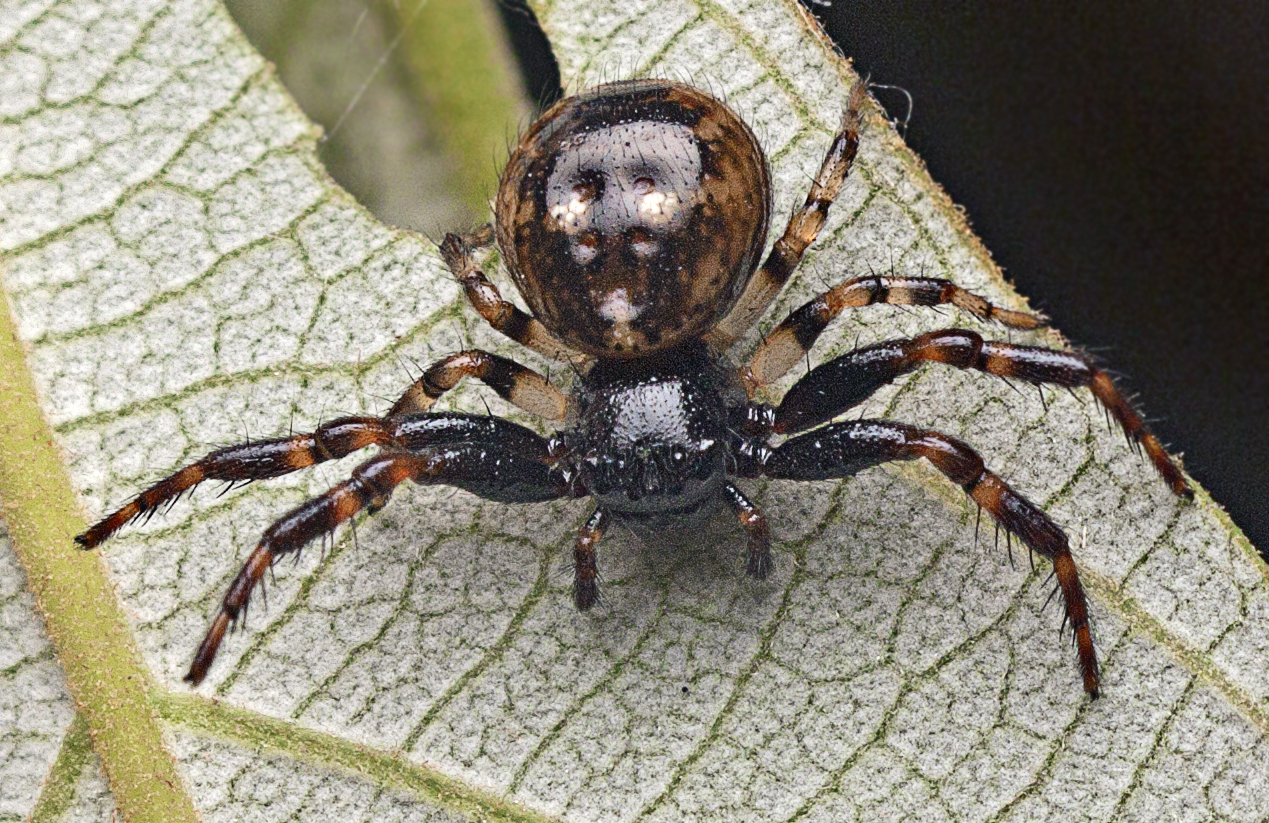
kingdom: Animalia
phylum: Arthropoda
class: Arachnida
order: Araneae
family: Thomisidae
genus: Xysticus
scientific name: Xysticus bimaculatus
